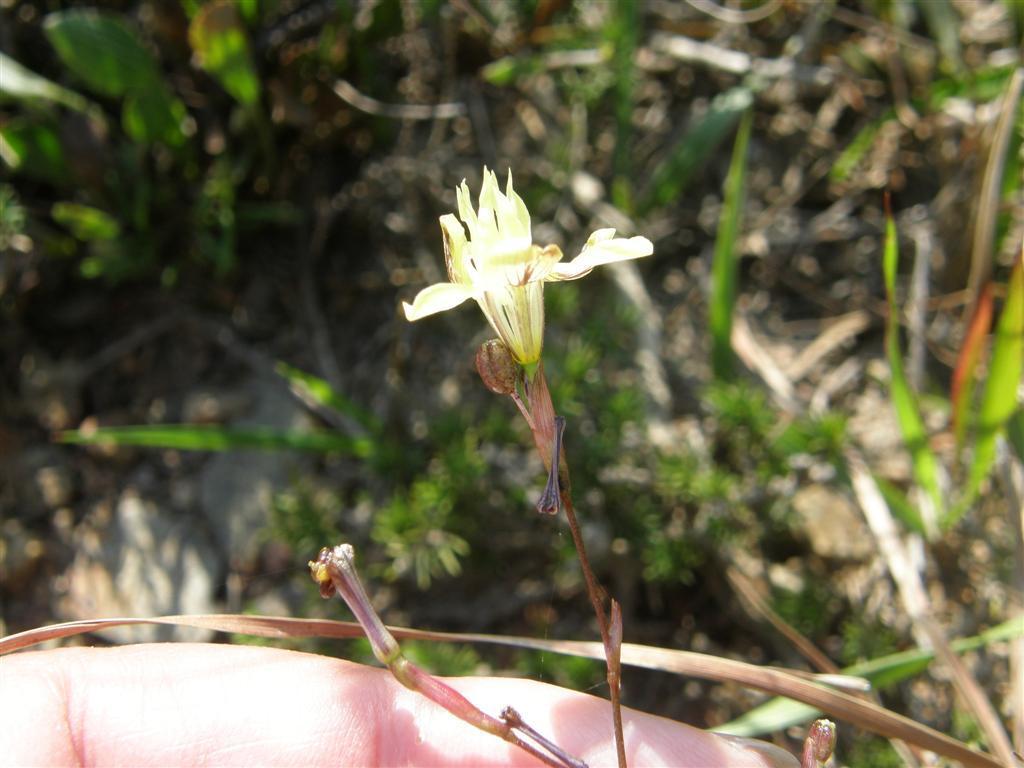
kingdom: Plantae
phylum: Tracheophyta
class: Liliopsida
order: Asparagales
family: Iridaceae
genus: Moraea
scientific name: Moraea gawleri
